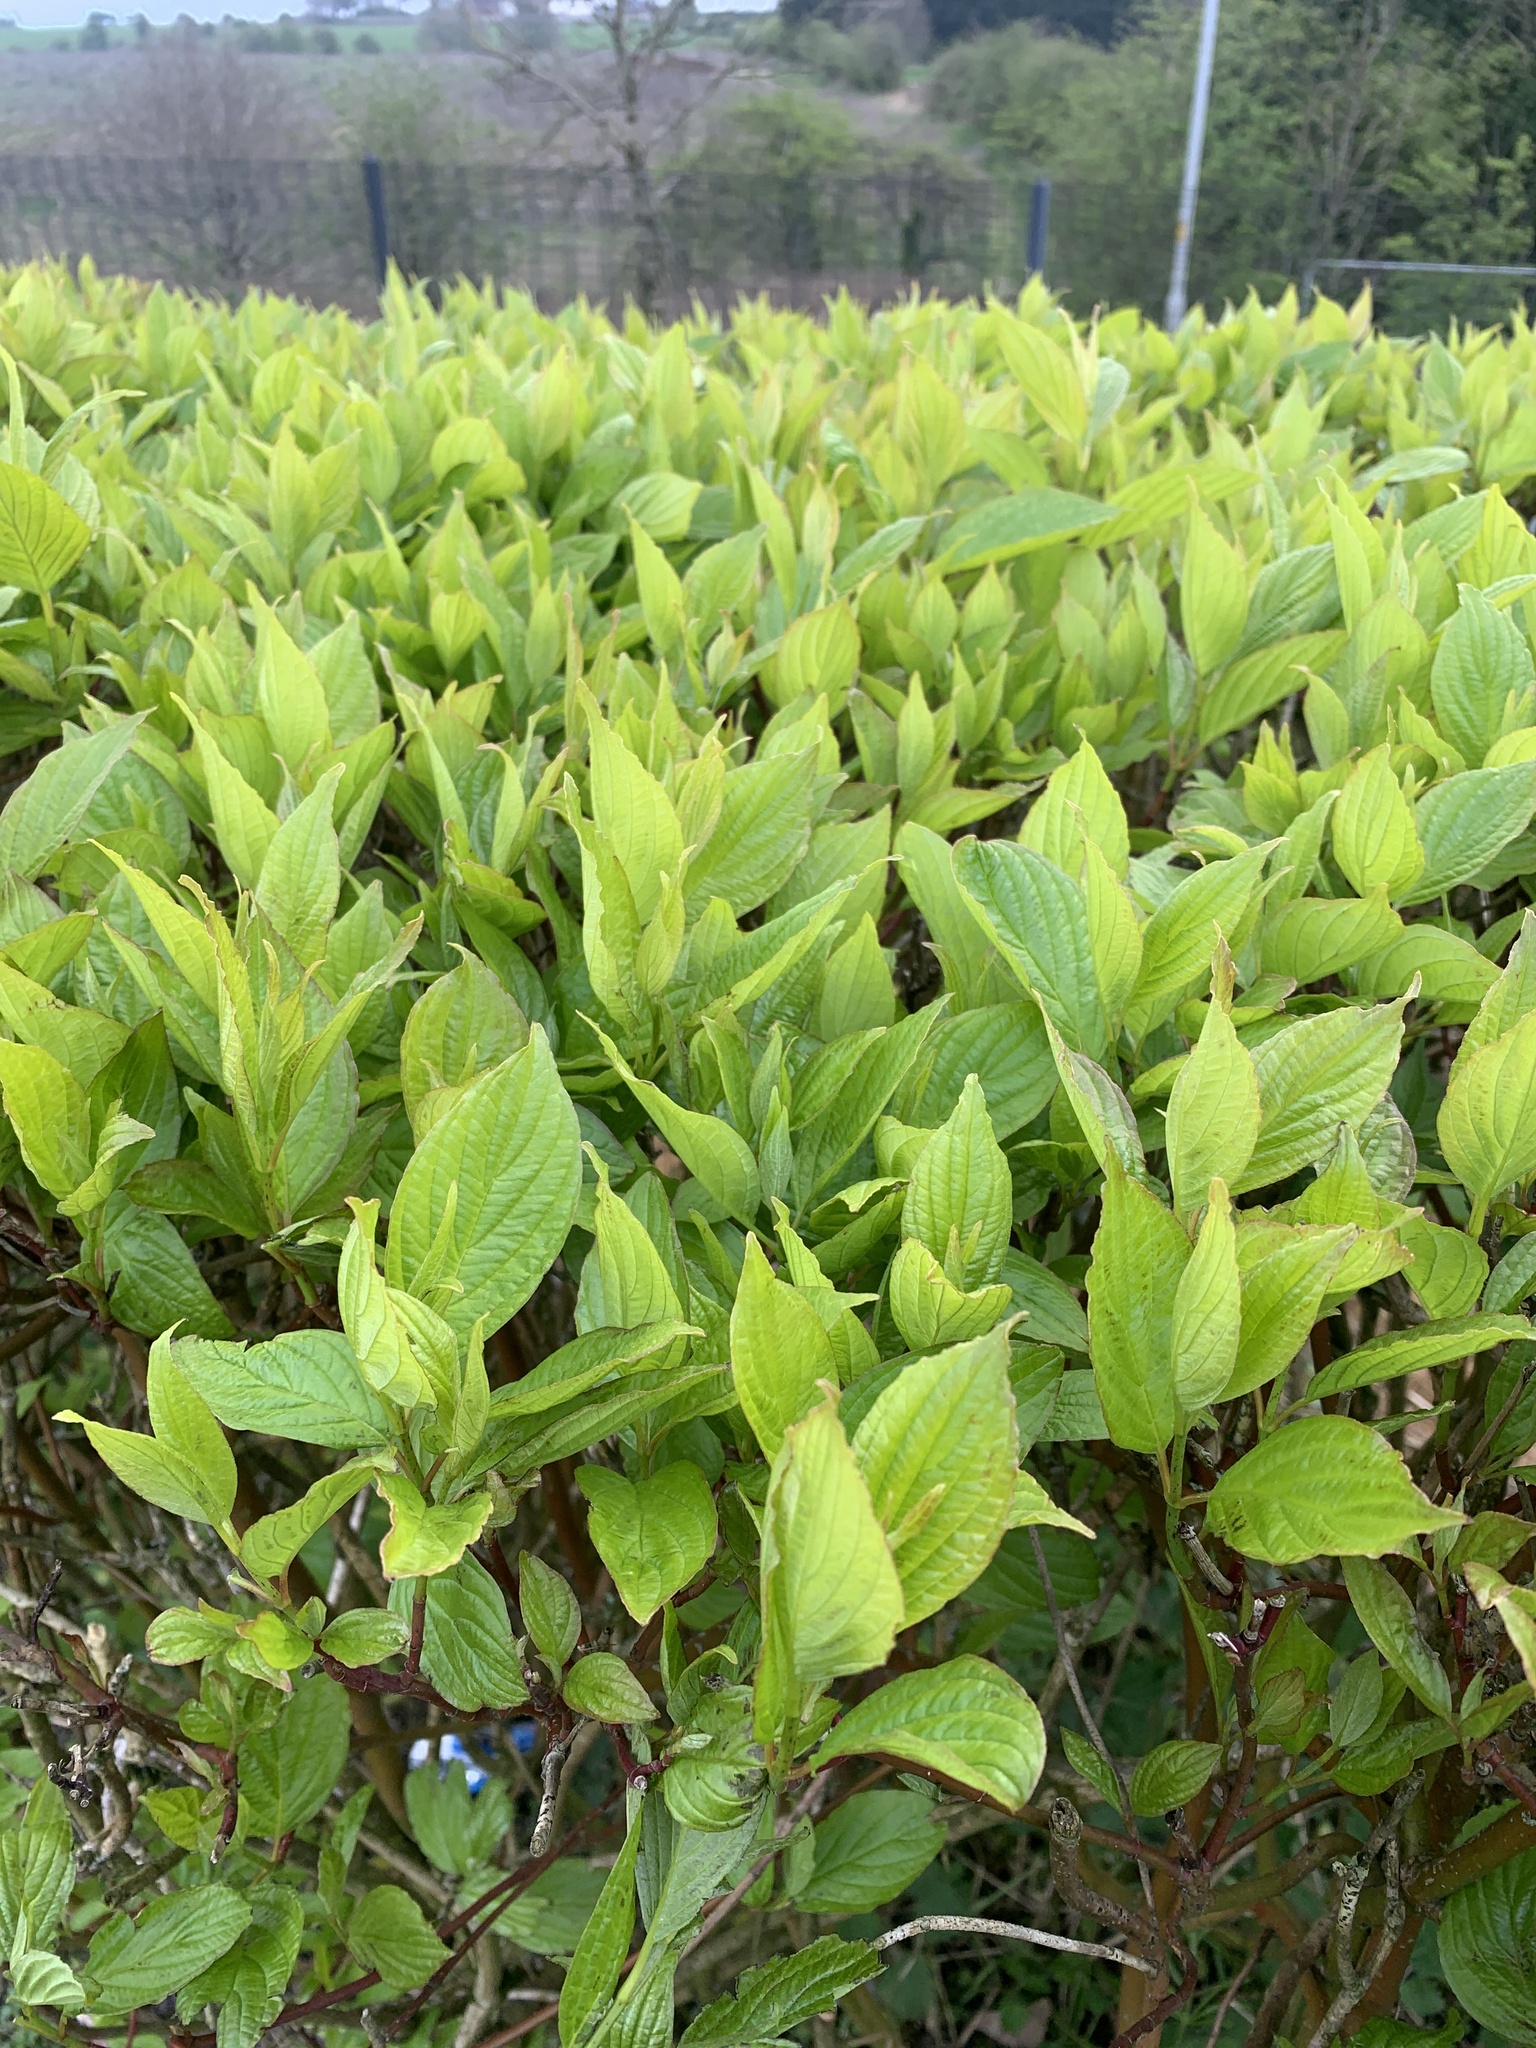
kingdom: Plantae
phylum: Tracheophyta
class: Magnoliopsida
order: Cornales
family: Cornaceae
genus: Cornus
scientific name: Cornus sanguinea
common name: Dogwood
